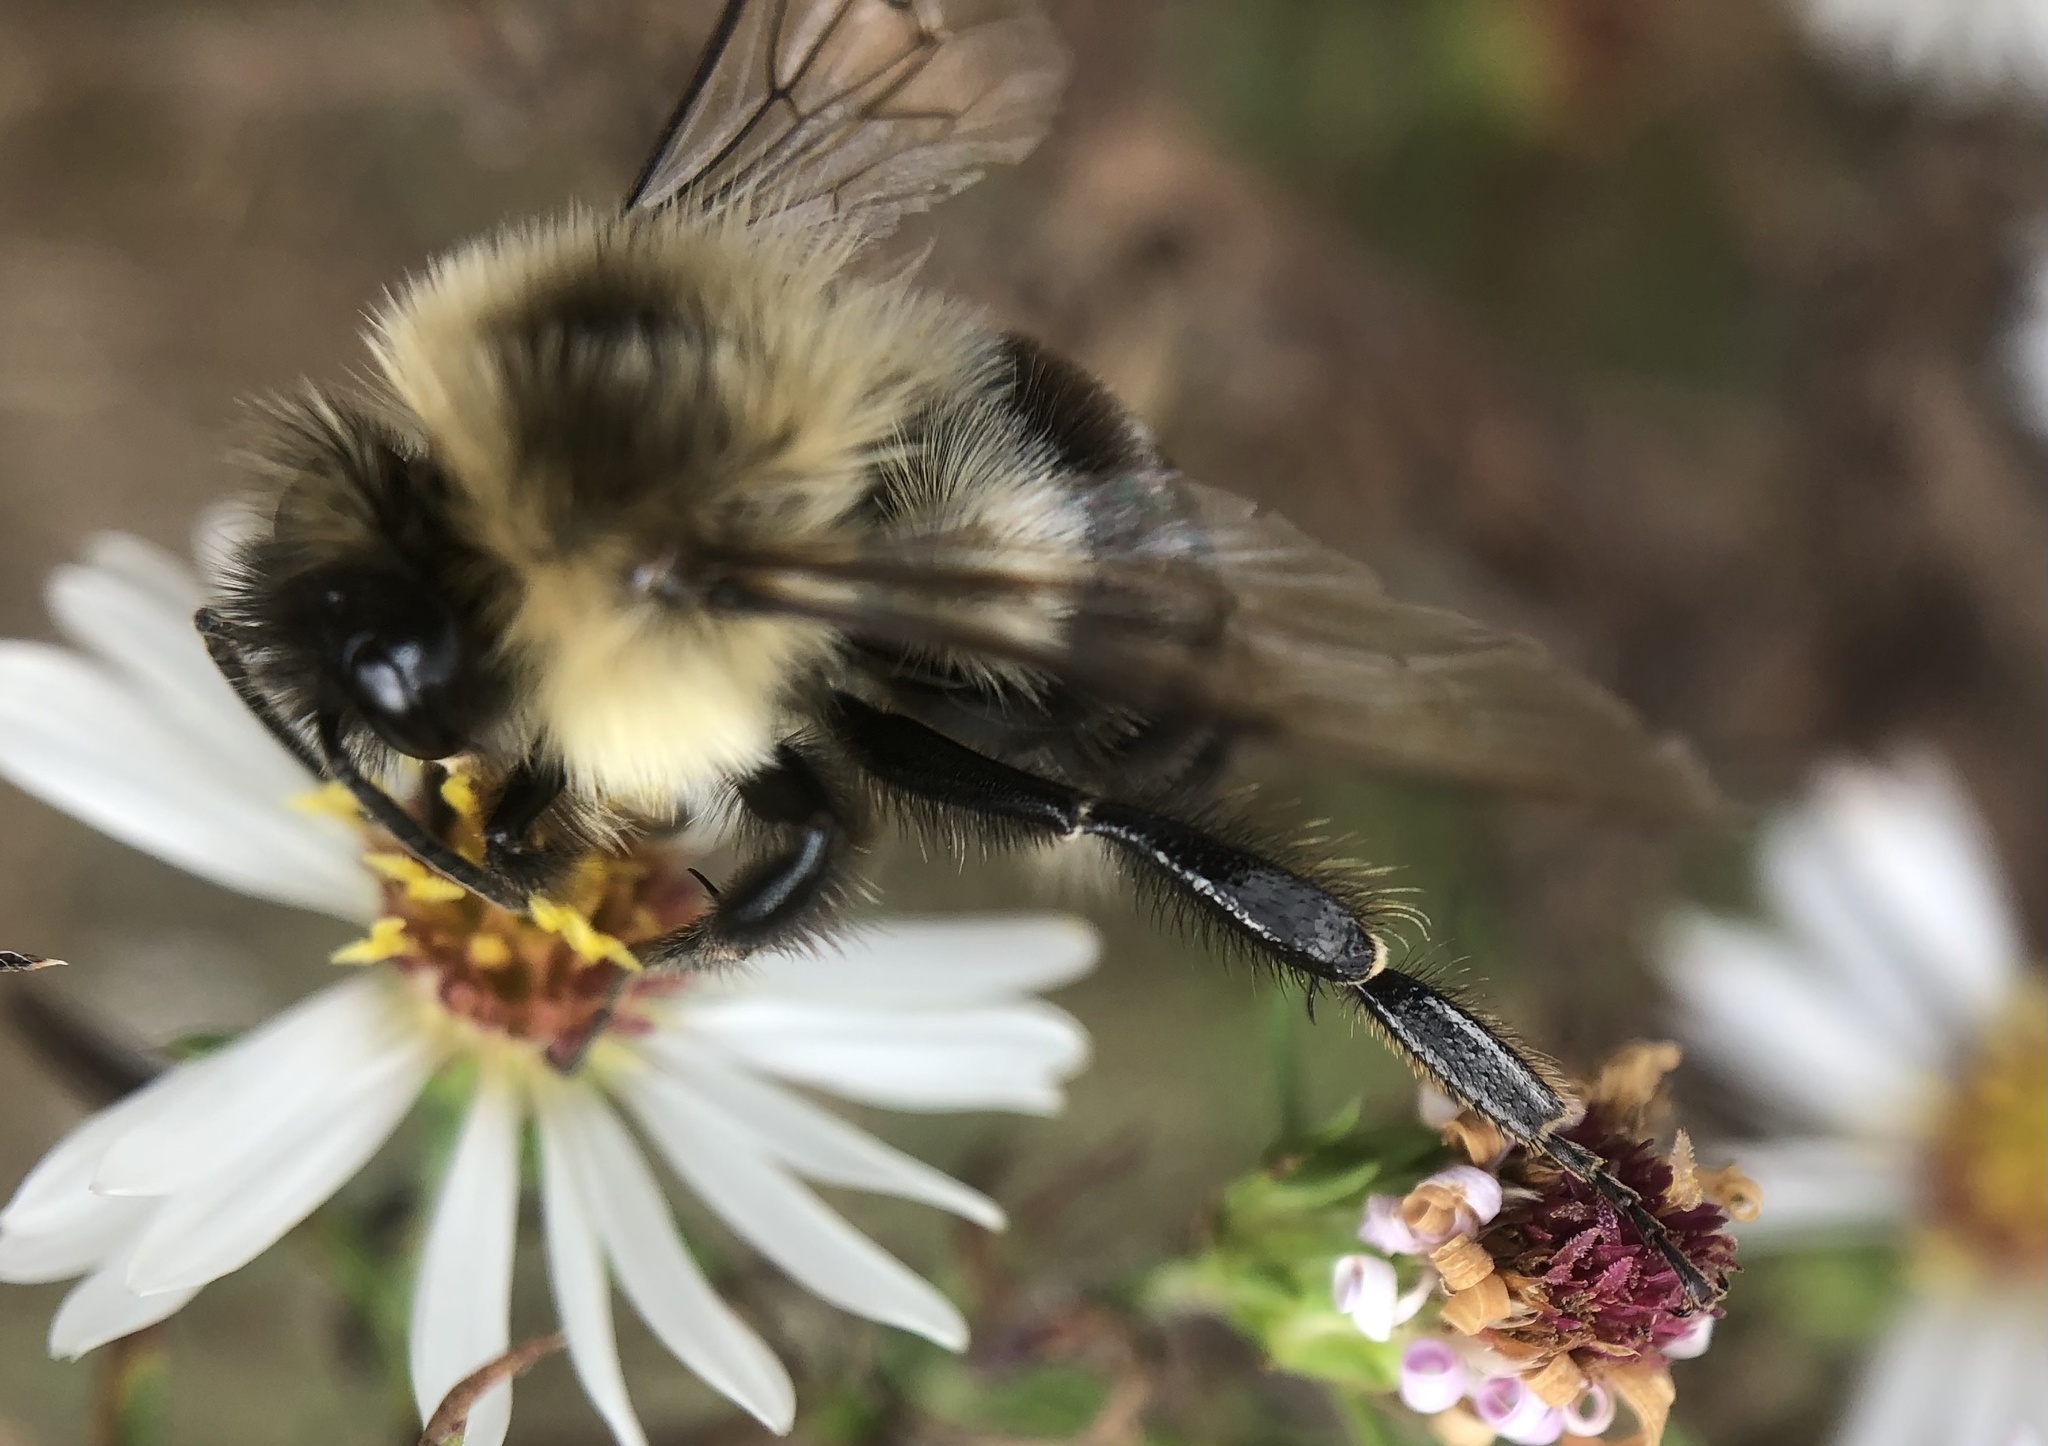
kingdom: Animalia
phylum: Arthropoda
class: Insecta
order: Hymenoptera
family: Apidae
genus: Bombus
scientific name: Bombus impatiens
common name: Common eastern bumble bee
